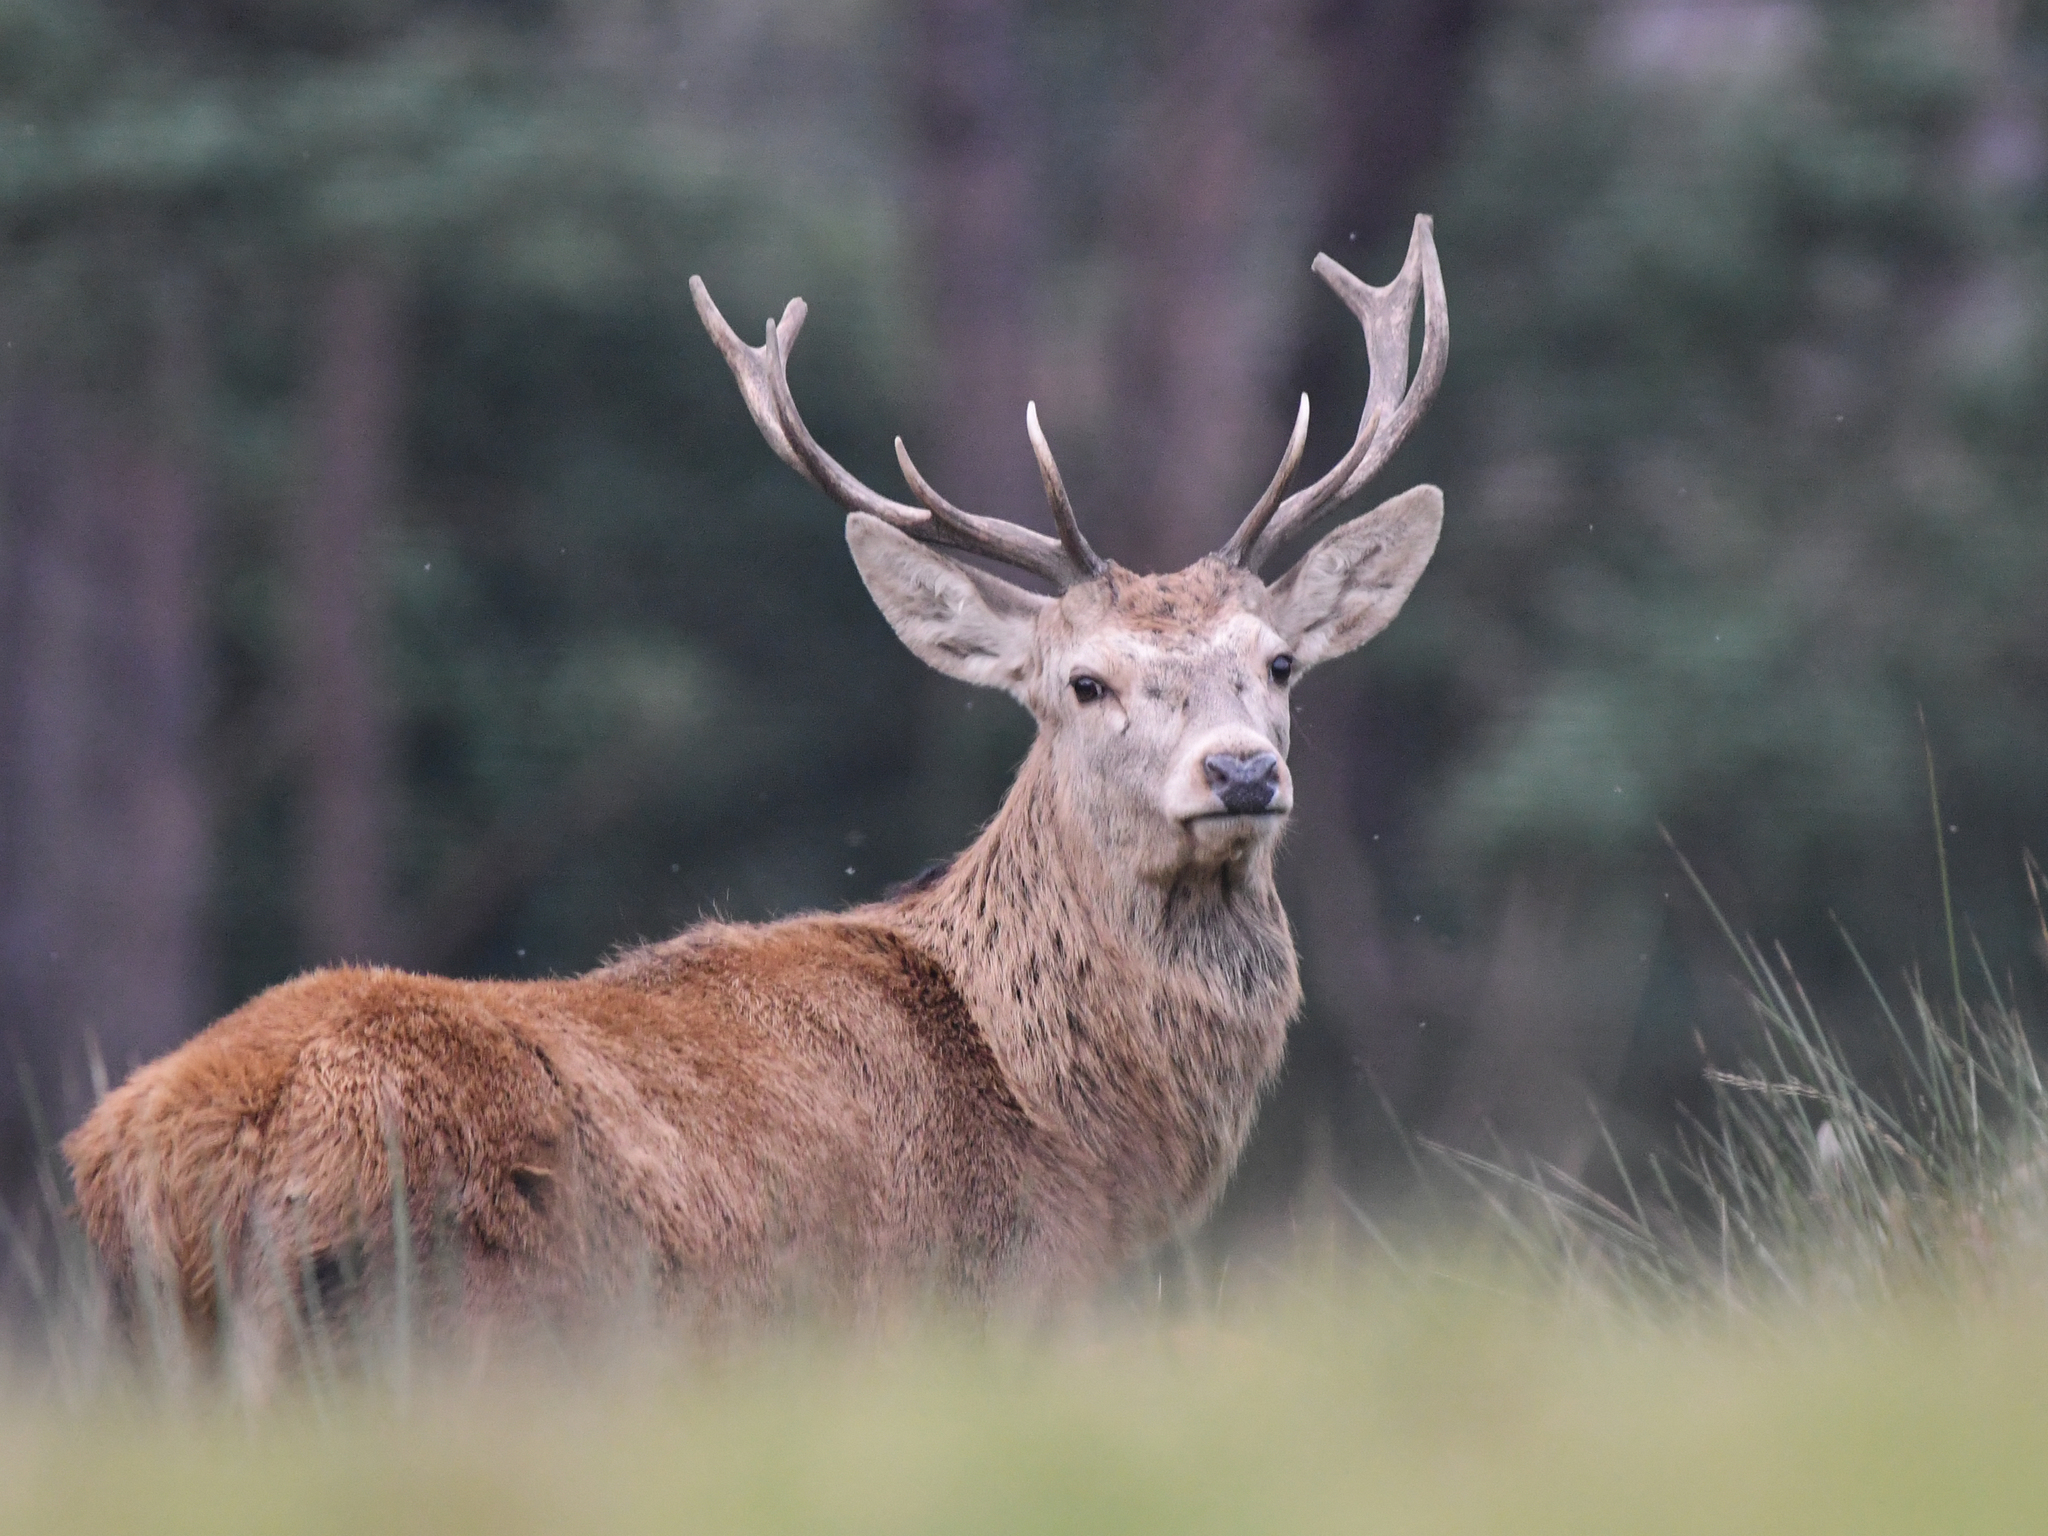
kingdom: Animalia
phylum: Chordata
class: Mammalia
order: Artiodactyla
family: Cervidae
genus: Cervus
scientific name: Cervus elaphus
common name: Red deer
